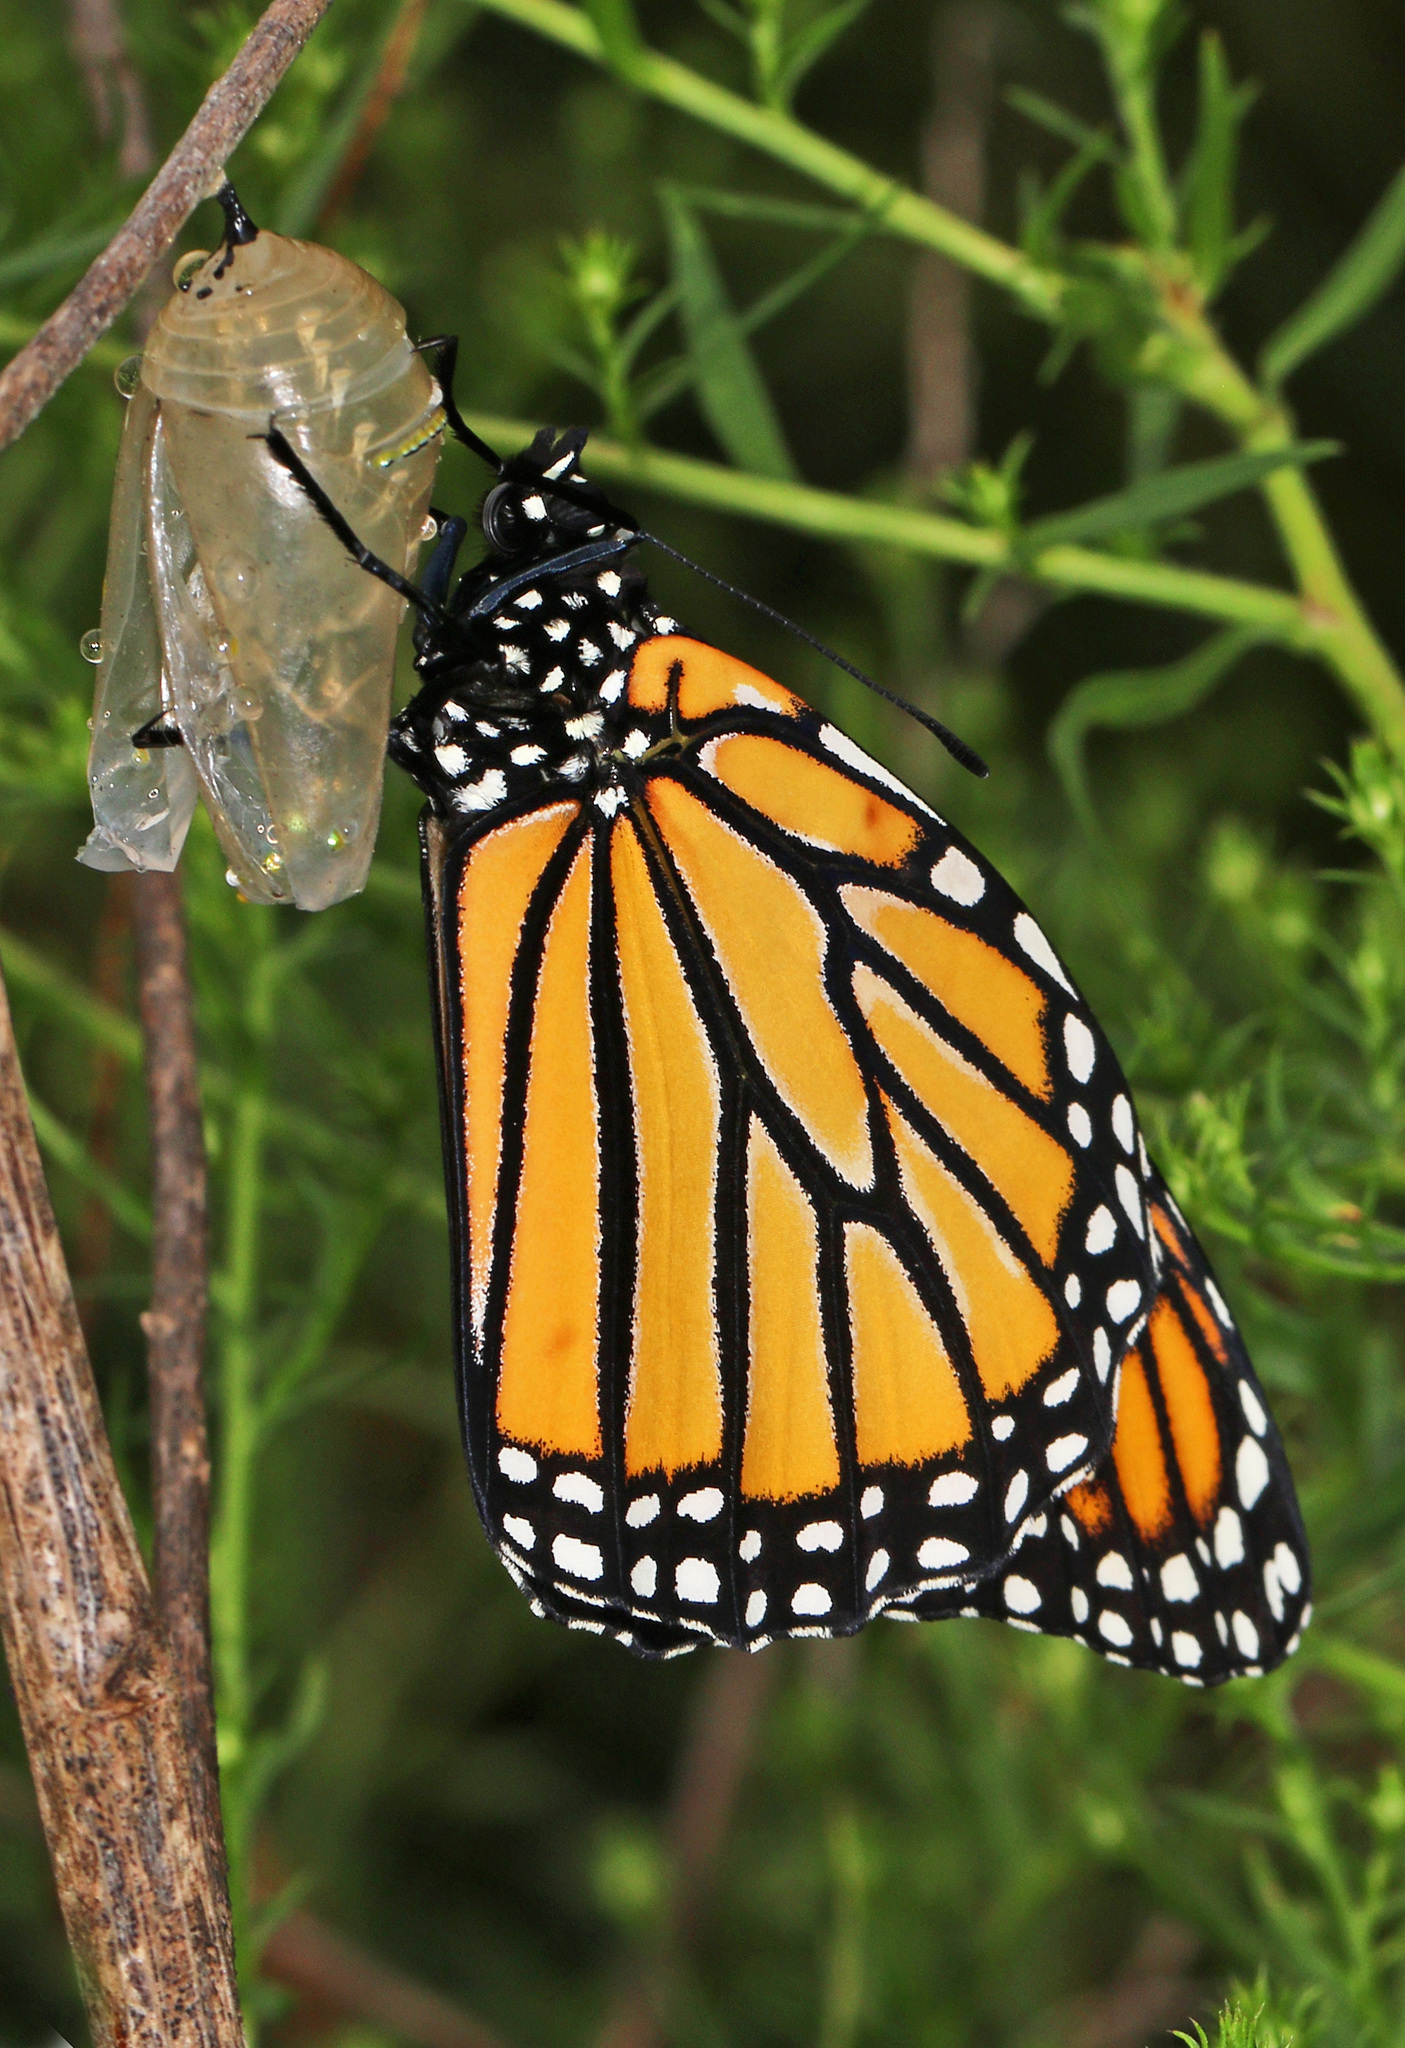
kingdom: Animalia
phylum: Arthropoda
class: Insecta
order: Lepidoptera
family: Nymphalidae
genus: Danaus
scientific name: Danaus plexippus
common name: Monarch
